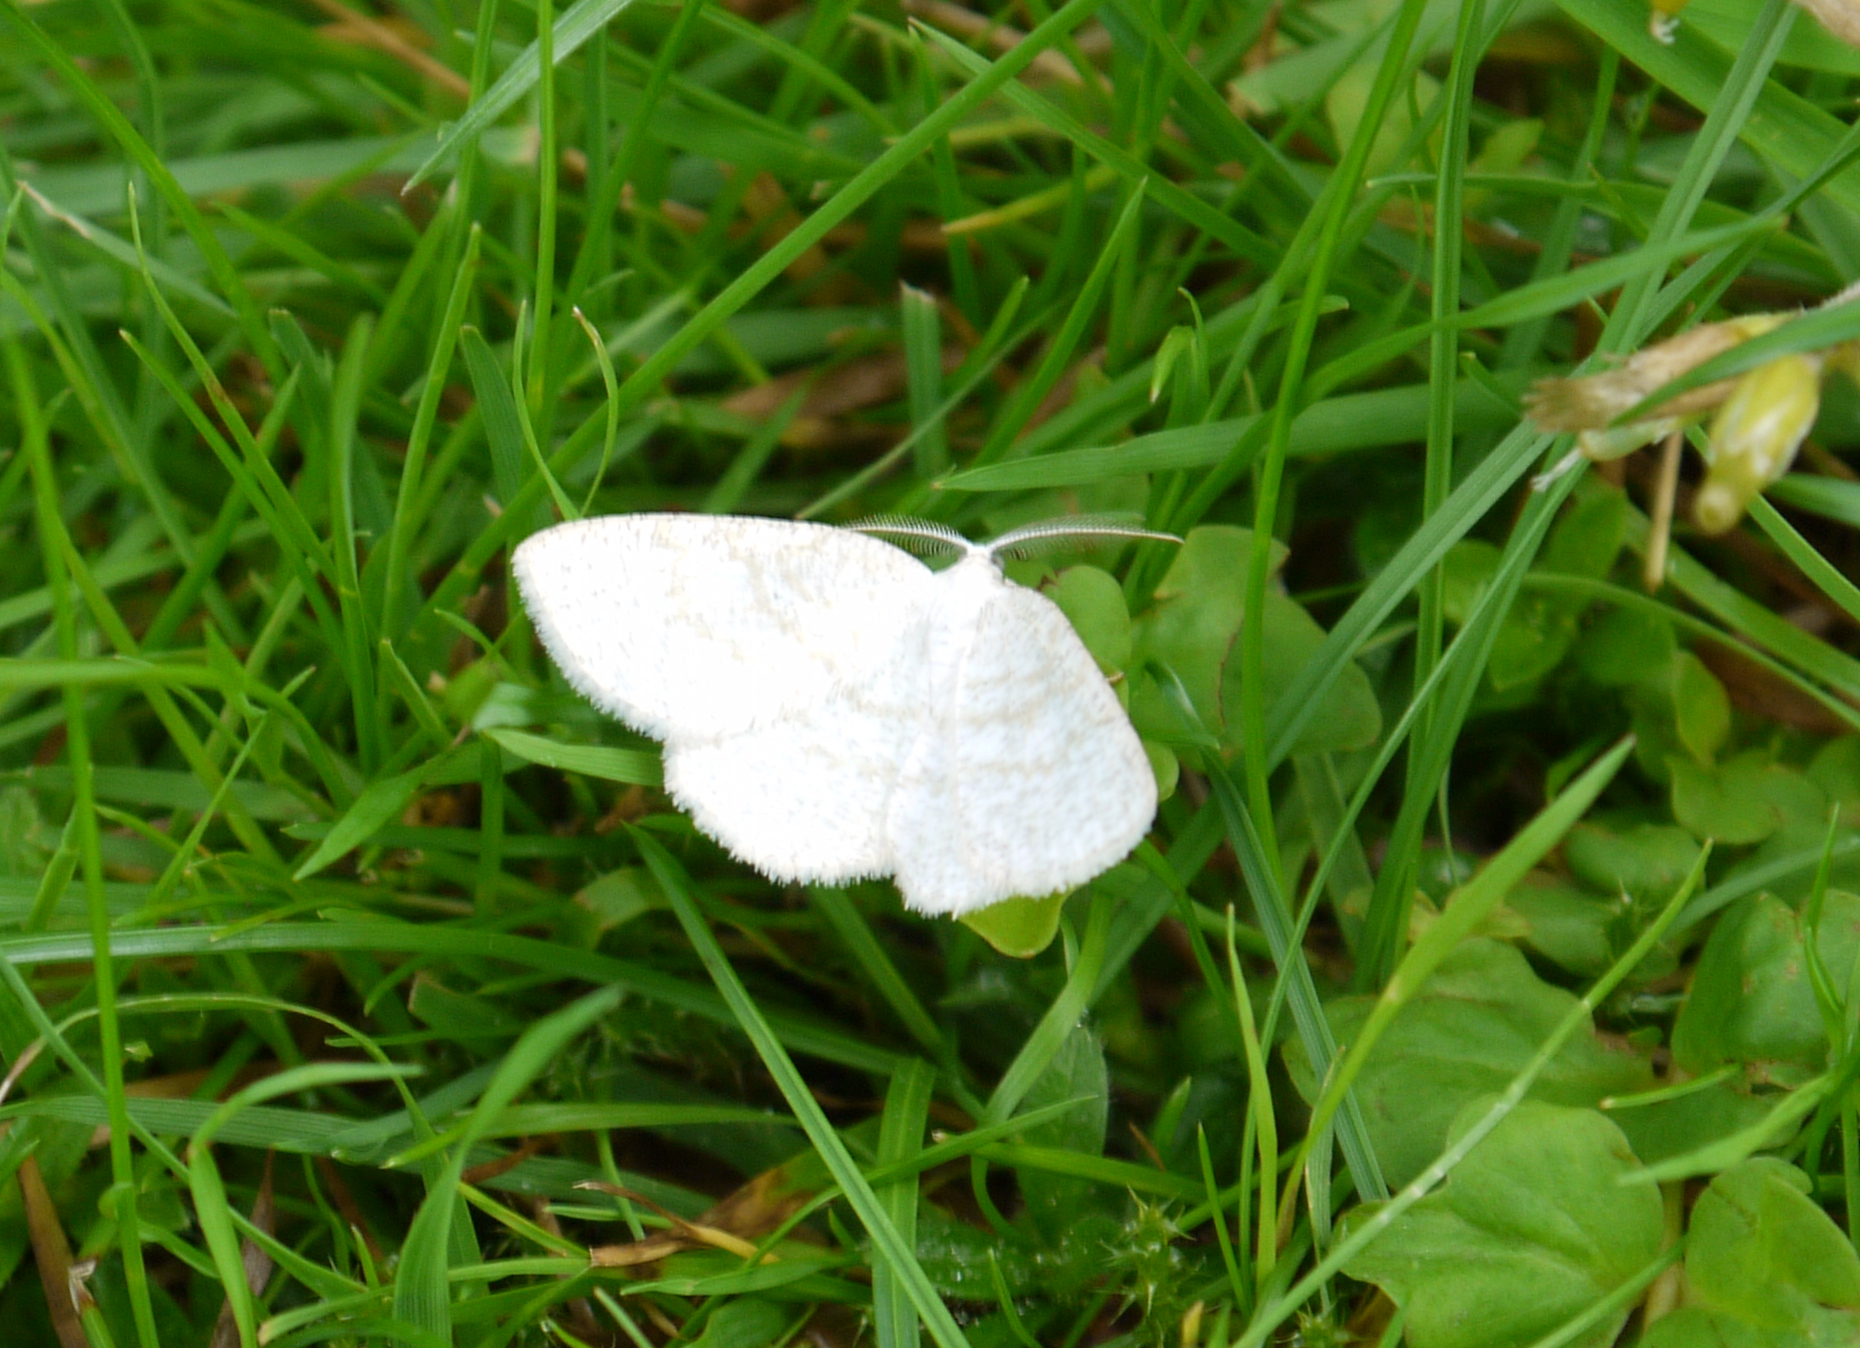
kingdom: Animalia
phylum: Arthropoda
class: Insecta
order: Lepidoptera
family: Geometridae
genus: Cabera
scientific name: Cabera exanthemata
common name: Common wave
